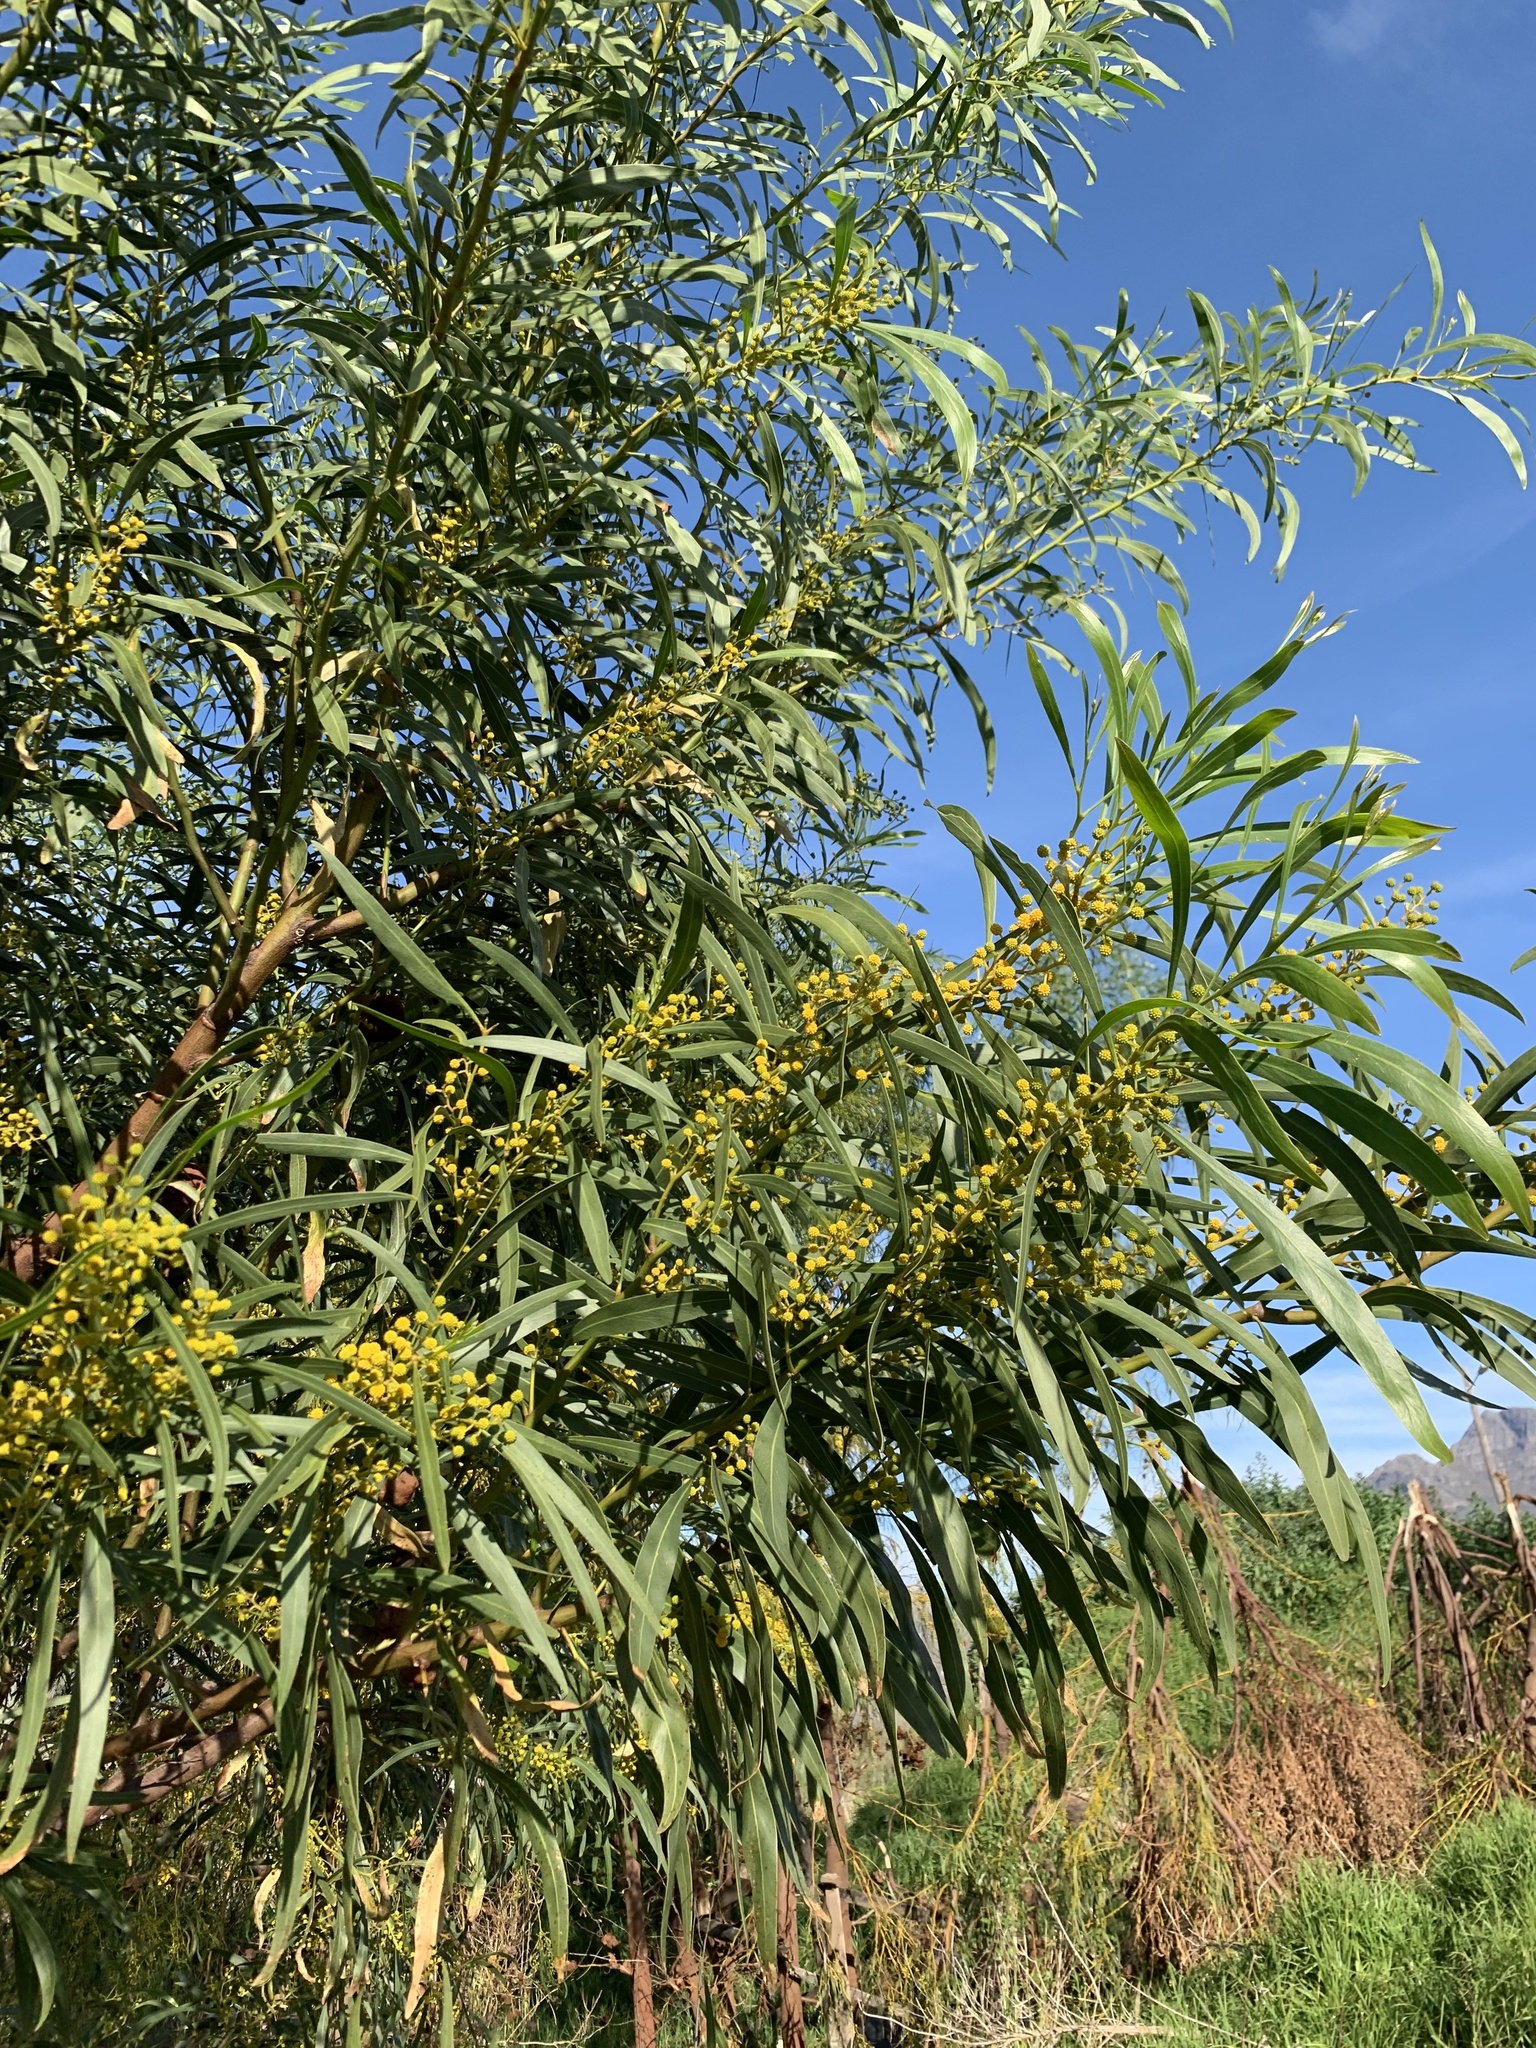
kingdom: Plantae
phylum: Tracheophyta
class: Magnoliopsida
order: Fabales
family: Fabaceae
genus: Acacia
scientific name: Acacia saligna
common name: Orange wattle
